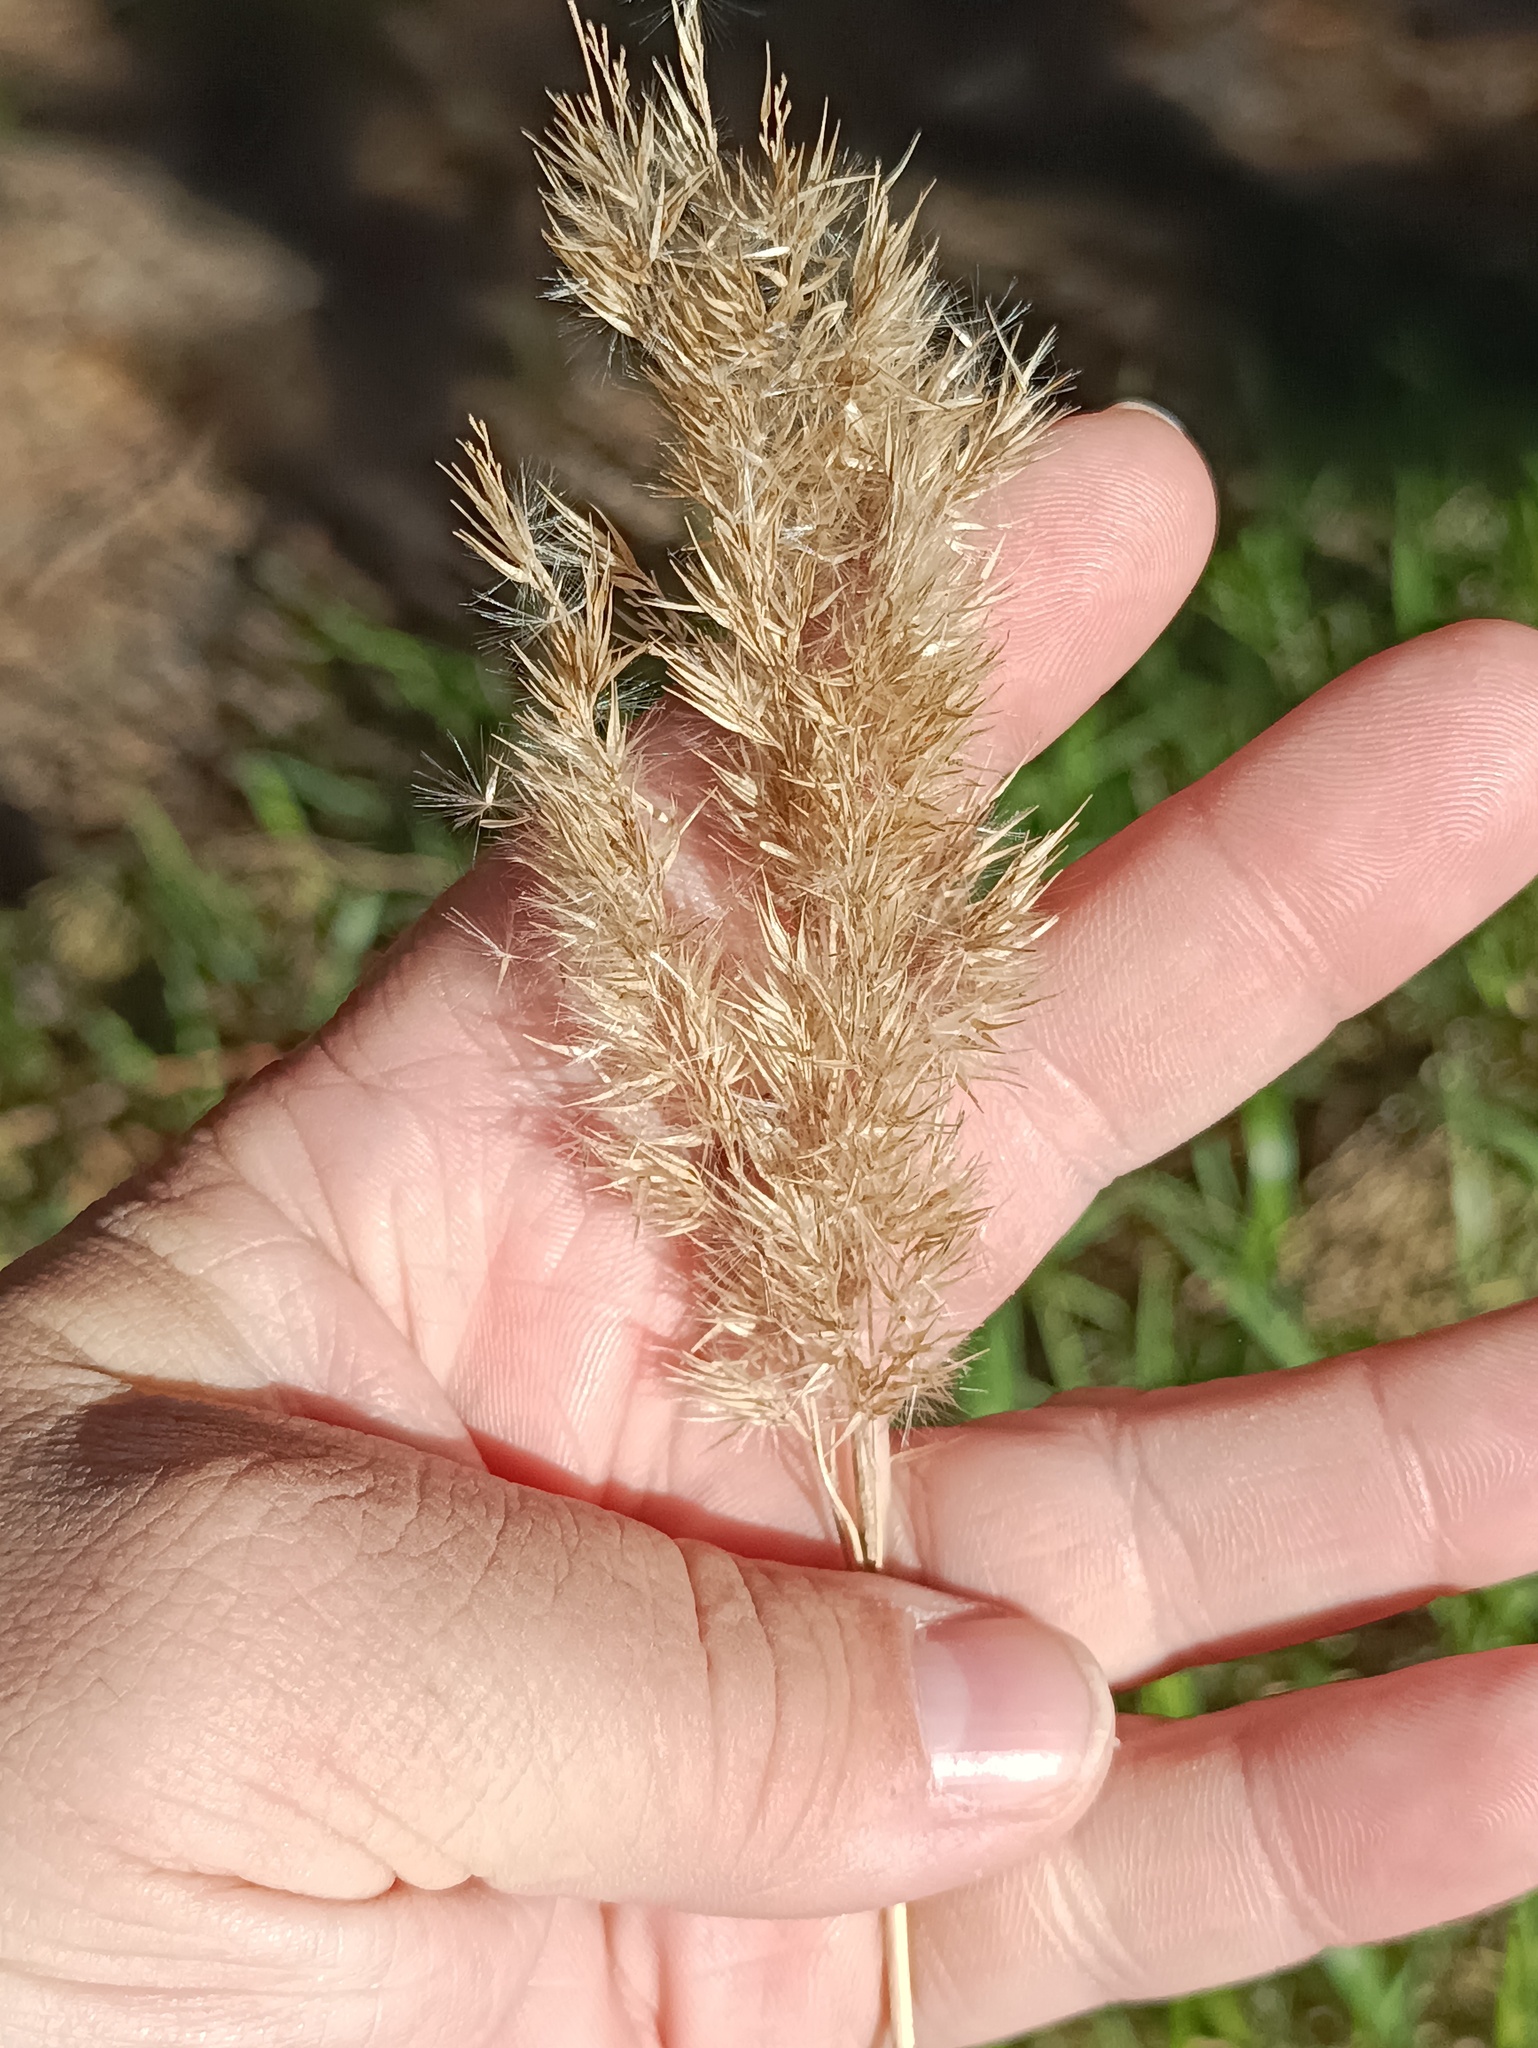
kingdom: Plantae
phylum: Tracheophyta
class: Liliopsida
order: Poales
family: Poaceae
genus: Calamagrostis
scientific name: Calamagrostis epigejos
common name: Wood small-reed
